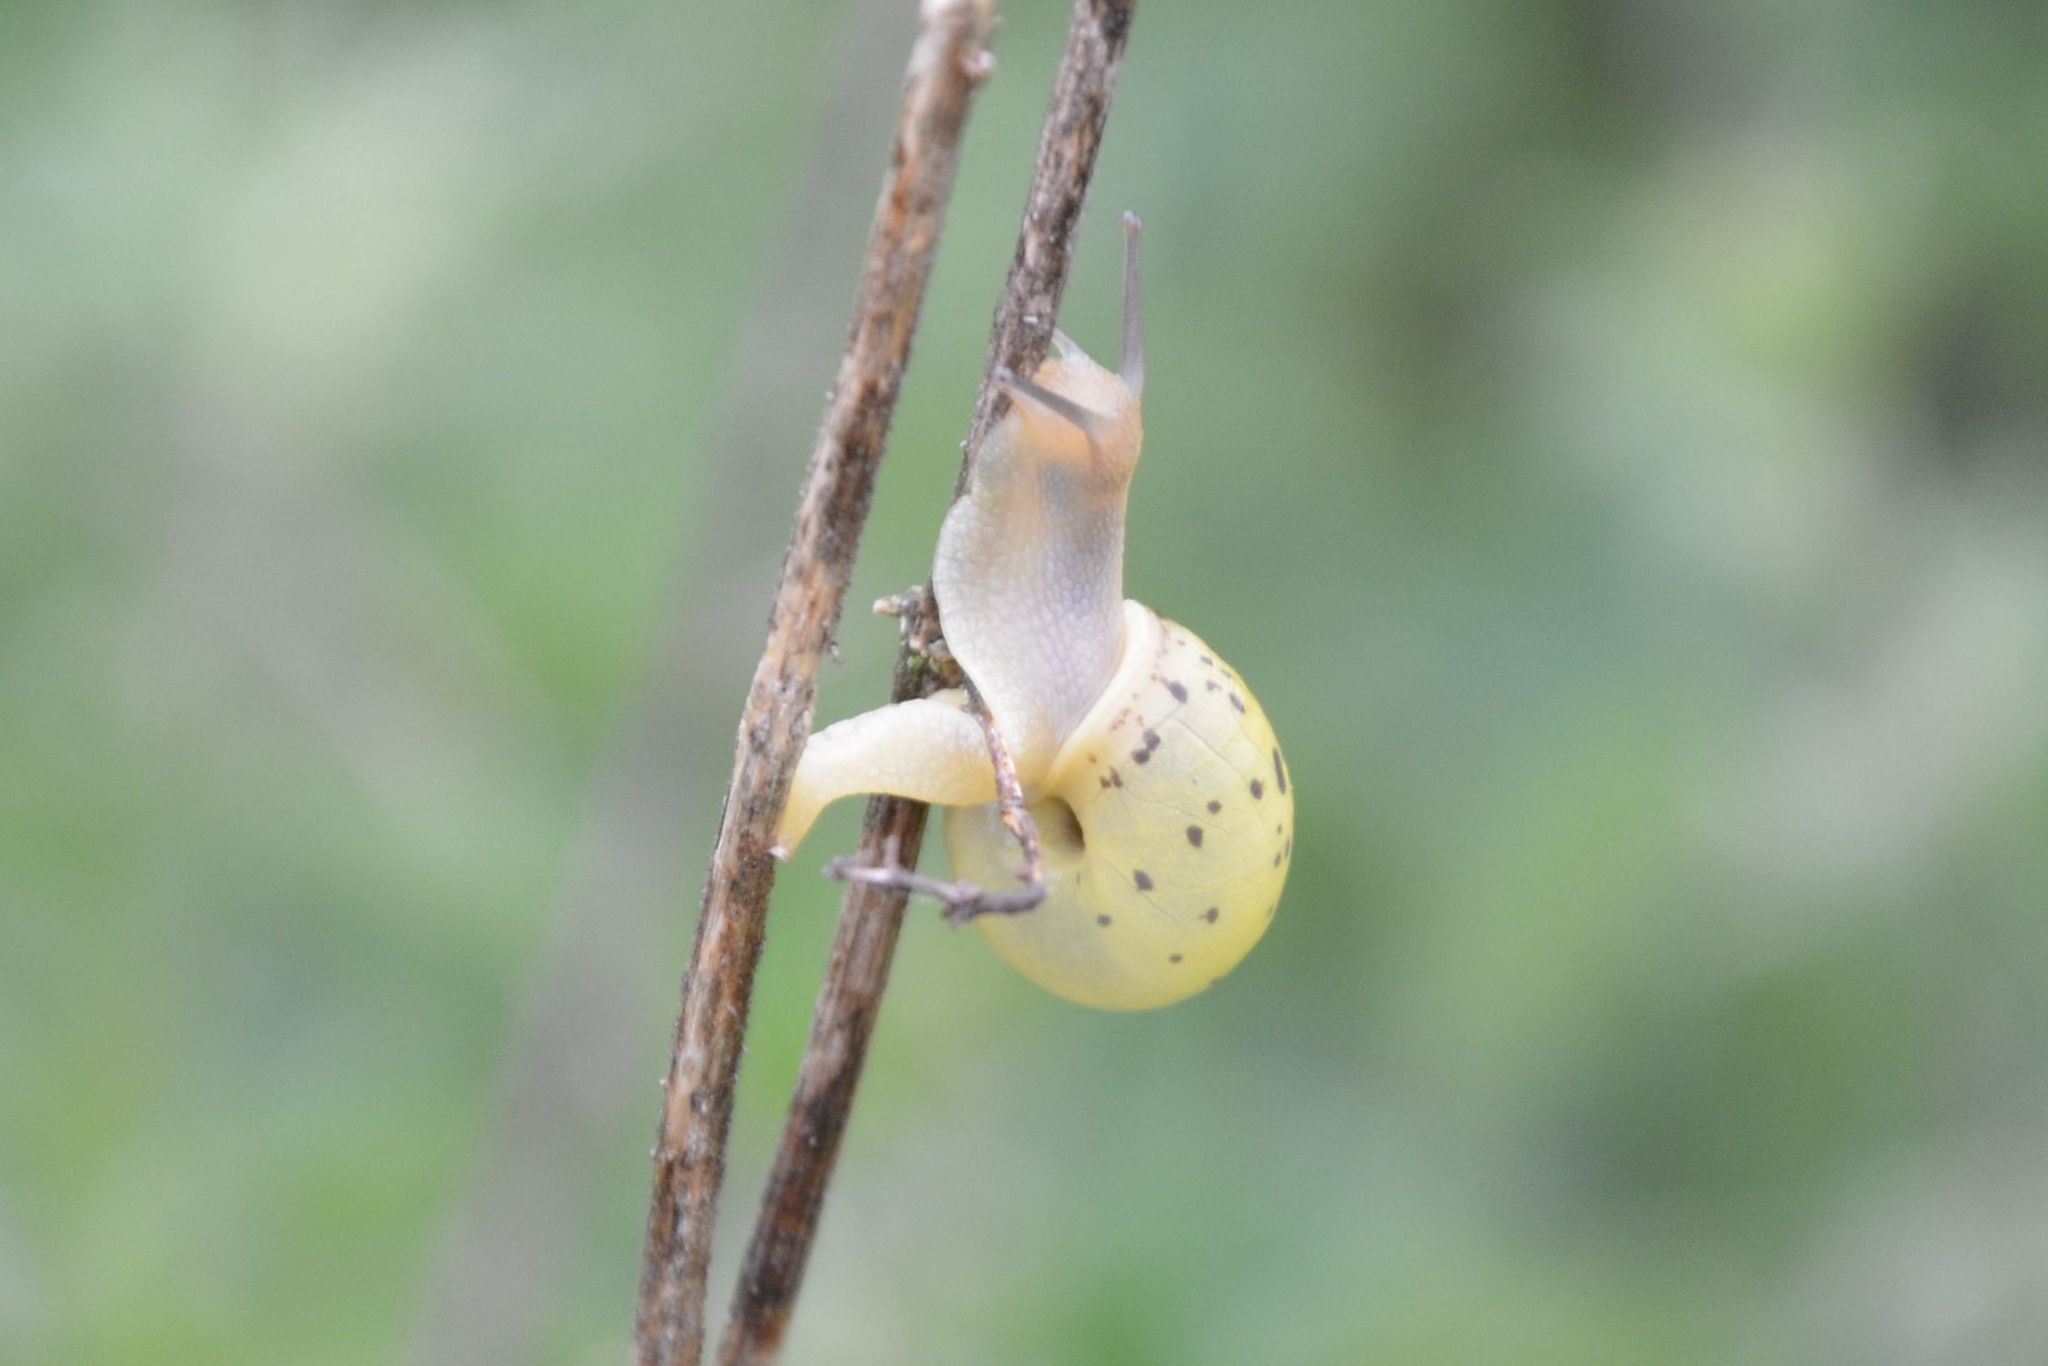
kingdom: Animalia
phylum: Mollusca
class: Gastropoda
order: Stylommatophora
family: Camaenidae
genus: Fruticicola
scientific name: Fruticicola fruticum
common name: Bush snail
